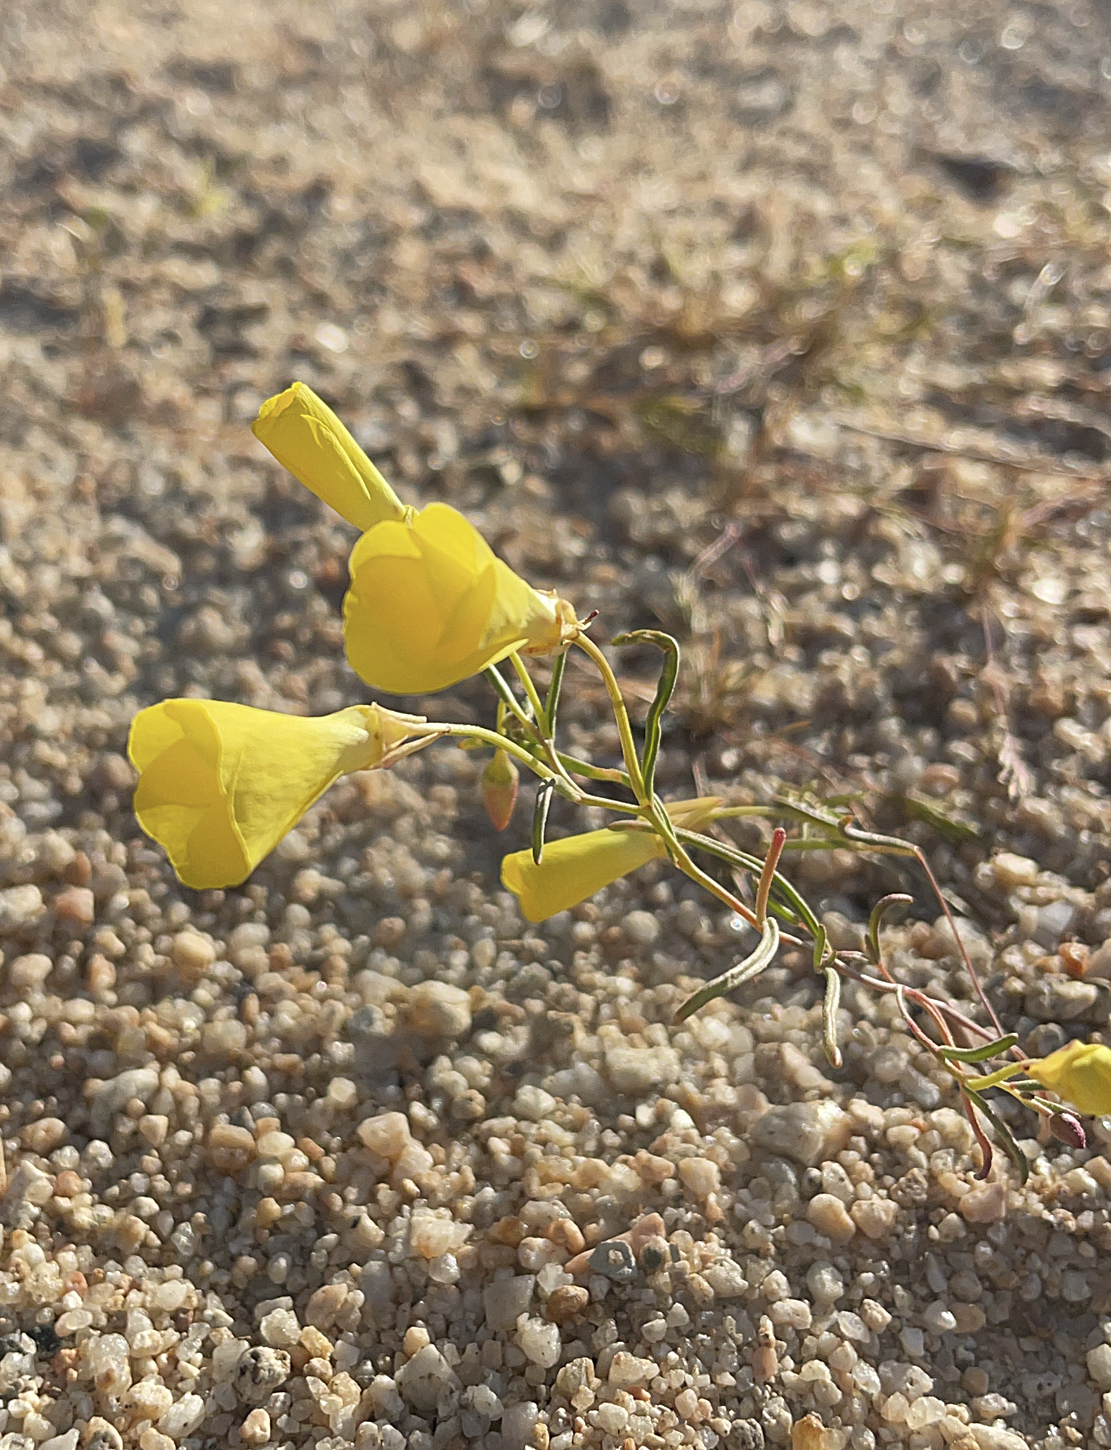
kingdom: Plantae
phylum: Tracheophyta
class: Magnoliopsida
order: Myrtales
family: Onagraceae
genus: Camissonia
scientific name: Camissonia campestris
